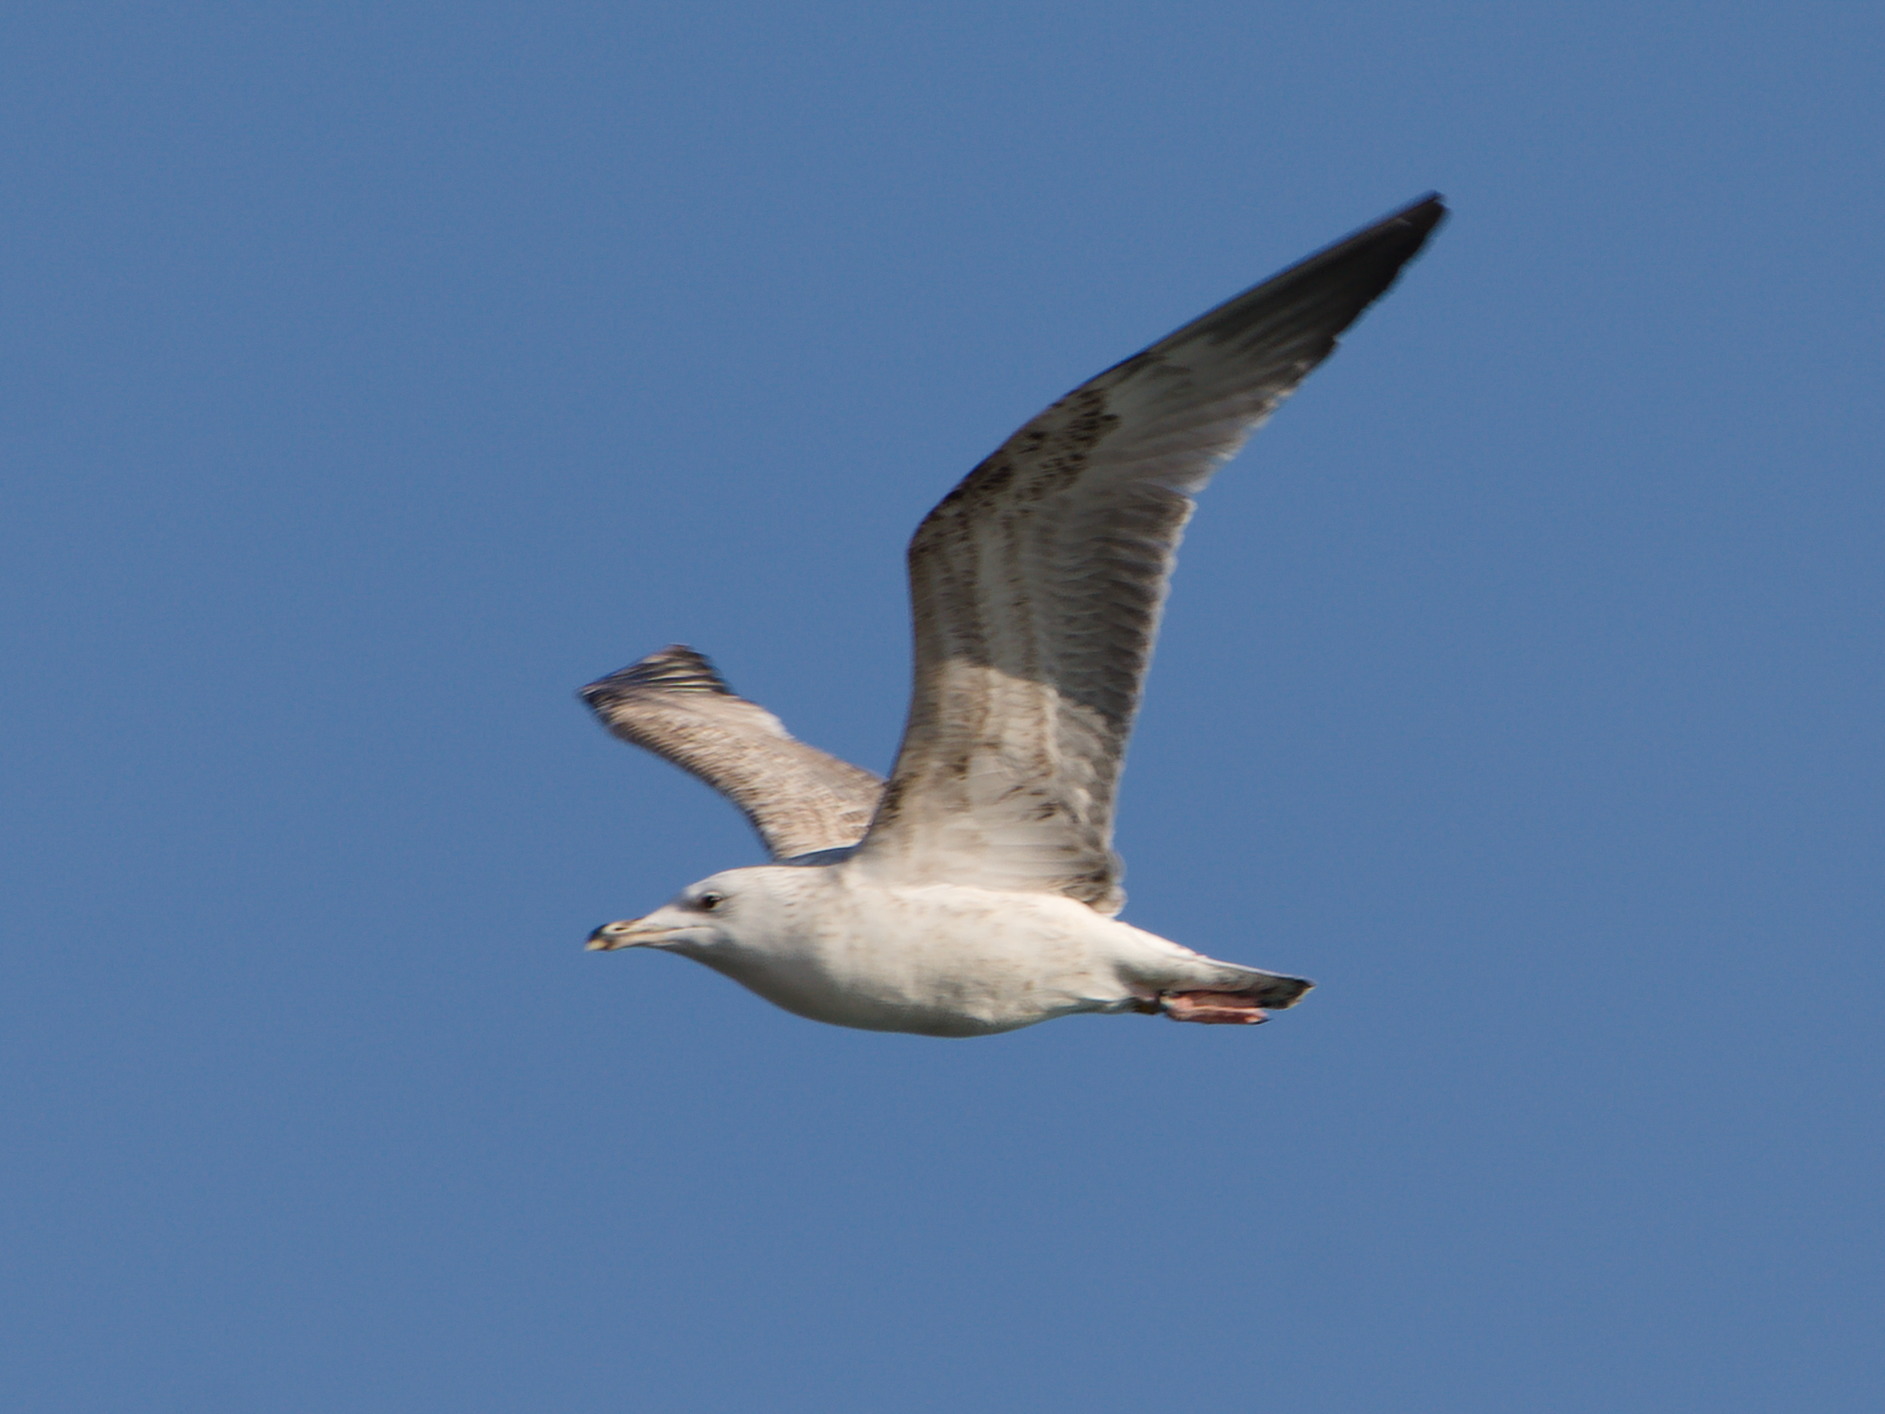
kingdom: Animalia
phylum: Chordata
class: Aves
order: Charadriiformes
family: Laridae
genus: Larus
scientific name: Larus cachinnans
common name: Caspian gull
